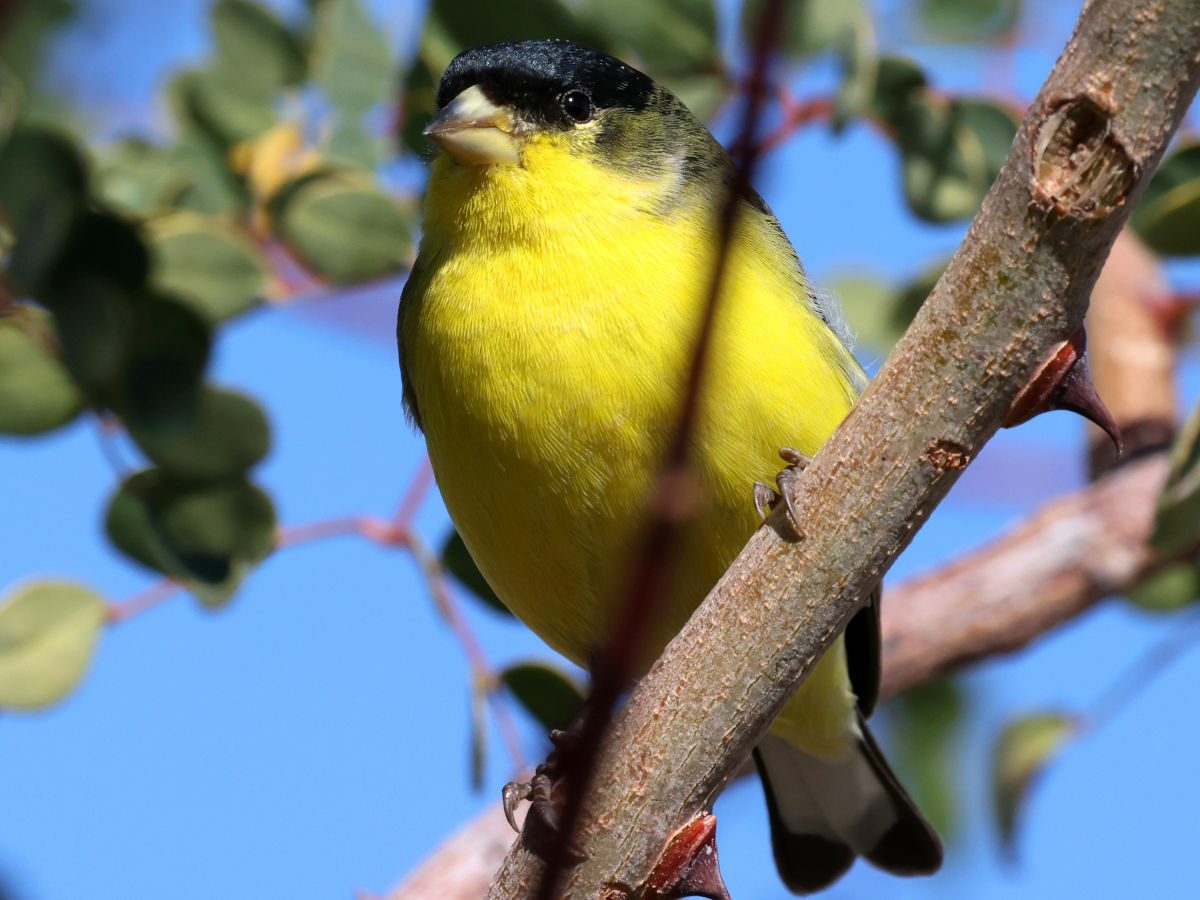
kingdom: Animalia
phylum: Chordata
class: Aves
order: Passeriformes
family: Fringillidae
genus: Spinus
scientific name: Spinus psaltria
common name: Lesser goldfinch
